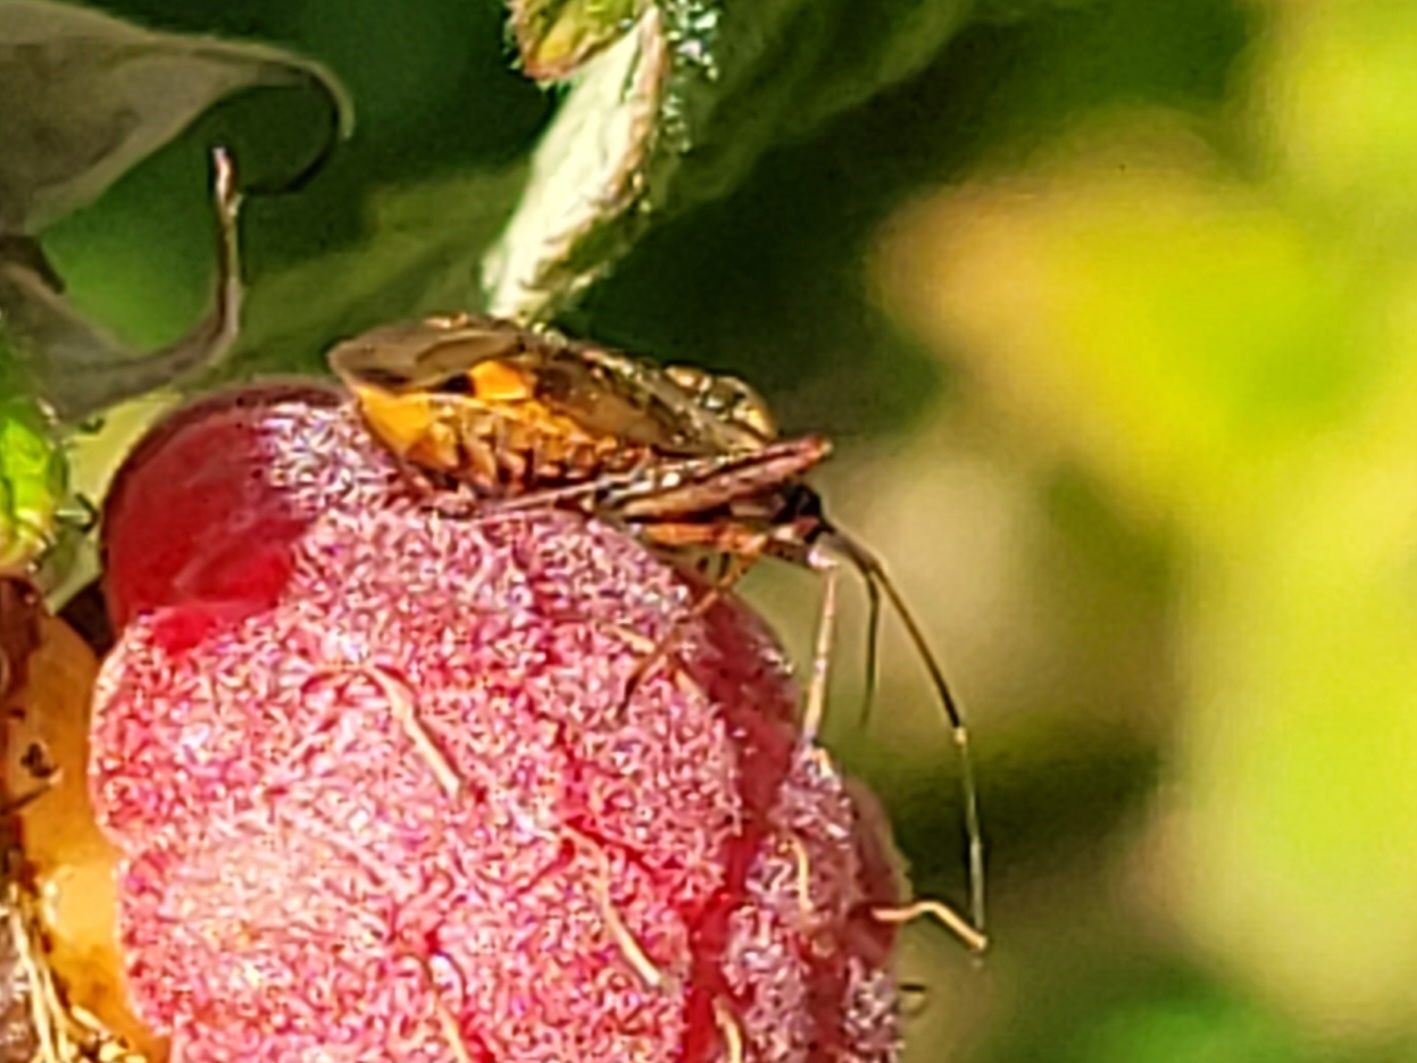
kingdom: Animalia
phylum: Arthropoda
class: Insecta
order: Hemiptera
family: Miridae
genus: Closterotomus
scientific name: Closterotomus fulvomaculatus
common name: Spotted plant bug
